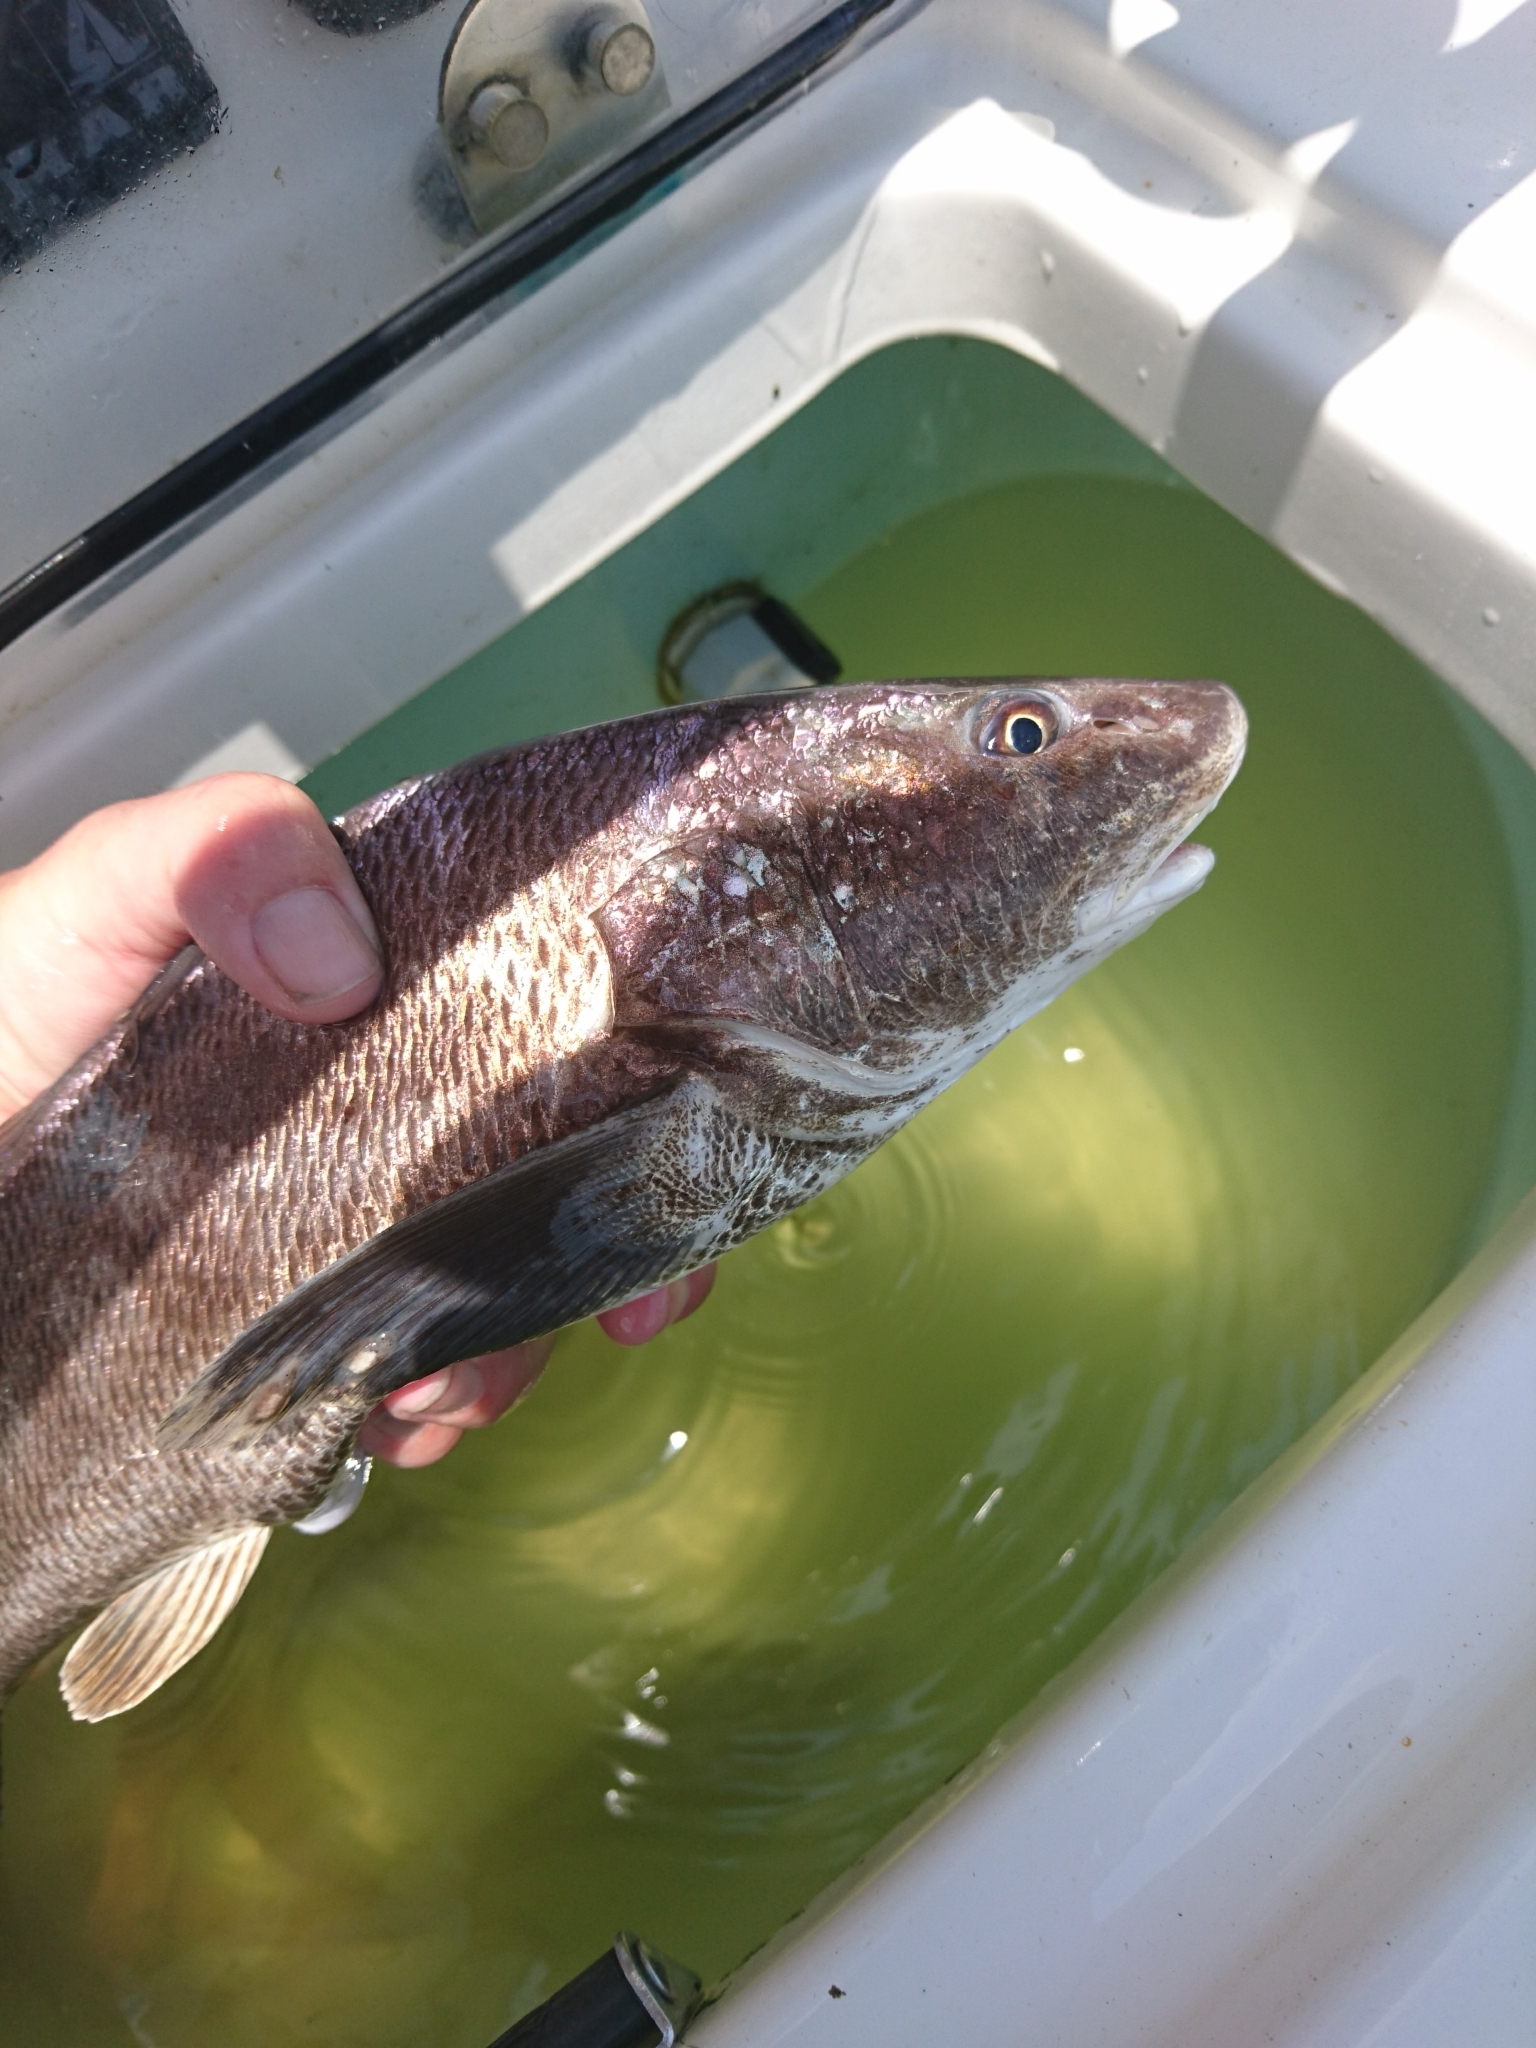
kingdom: Animalia
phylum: Chordata
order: Perciformes
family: Sciaenidae
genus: Menticirrhus
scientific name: Menticirrhus americanus
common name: Southern kingfish
